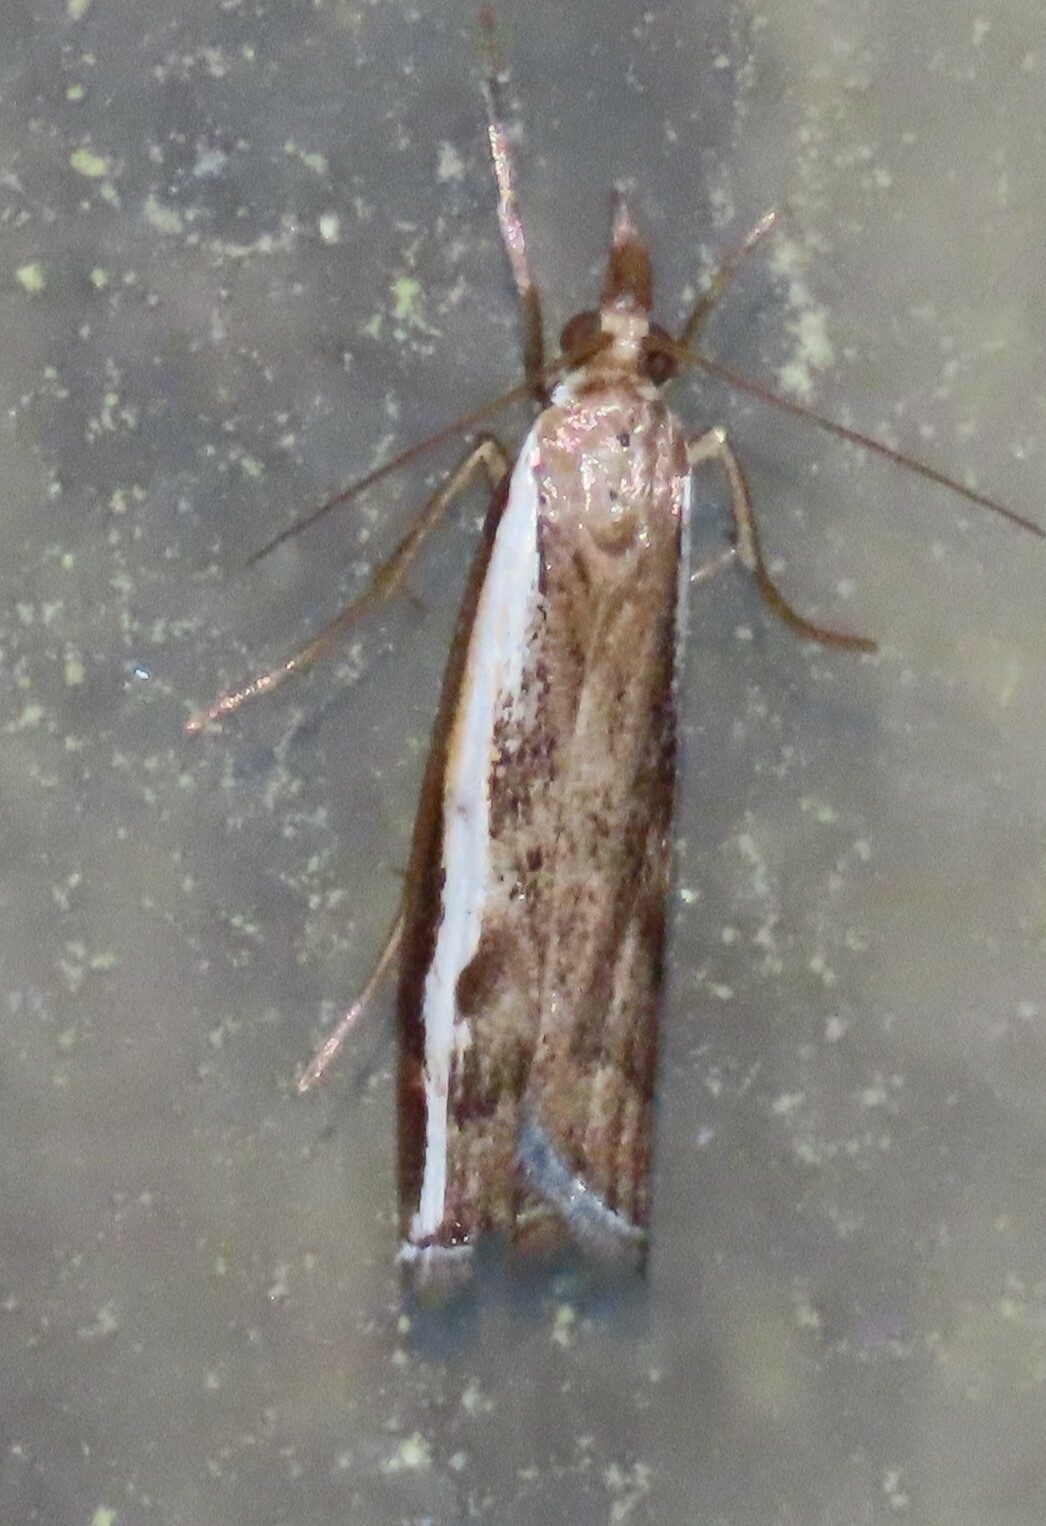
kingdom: Animalia
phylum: Arthropoda
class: Insecta
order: Lepidoptera
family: Crambidae
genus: Orocrambus
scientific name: Orocrambus flexuosellus
